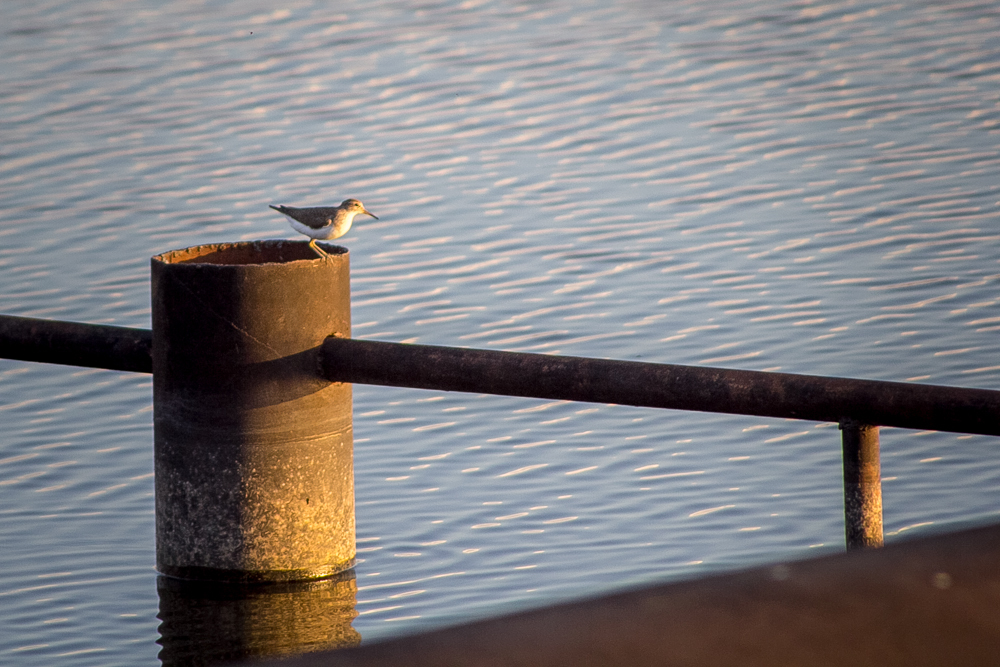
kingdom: Animalia
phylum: Chordata
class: Aves
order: Charadriiformes
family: Scolopacidae
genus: Actitis
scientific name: Actitis hypoleucos
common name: Common sandpiper
